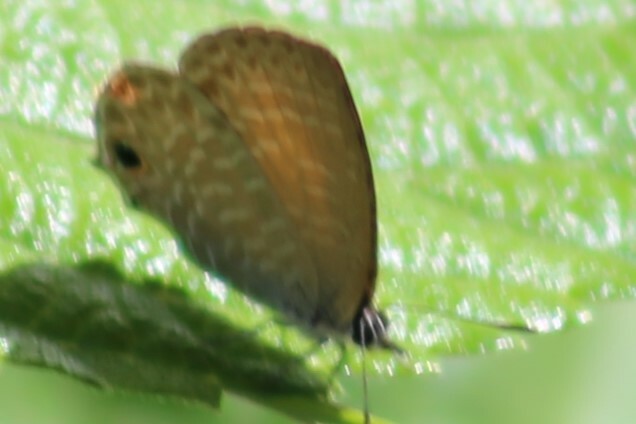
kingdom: Animalia
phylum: Arthropoda
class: Insecta
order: Lepidoptera
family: Lycaenidae
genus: Nacaduba
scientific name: Nacaduba berenice
